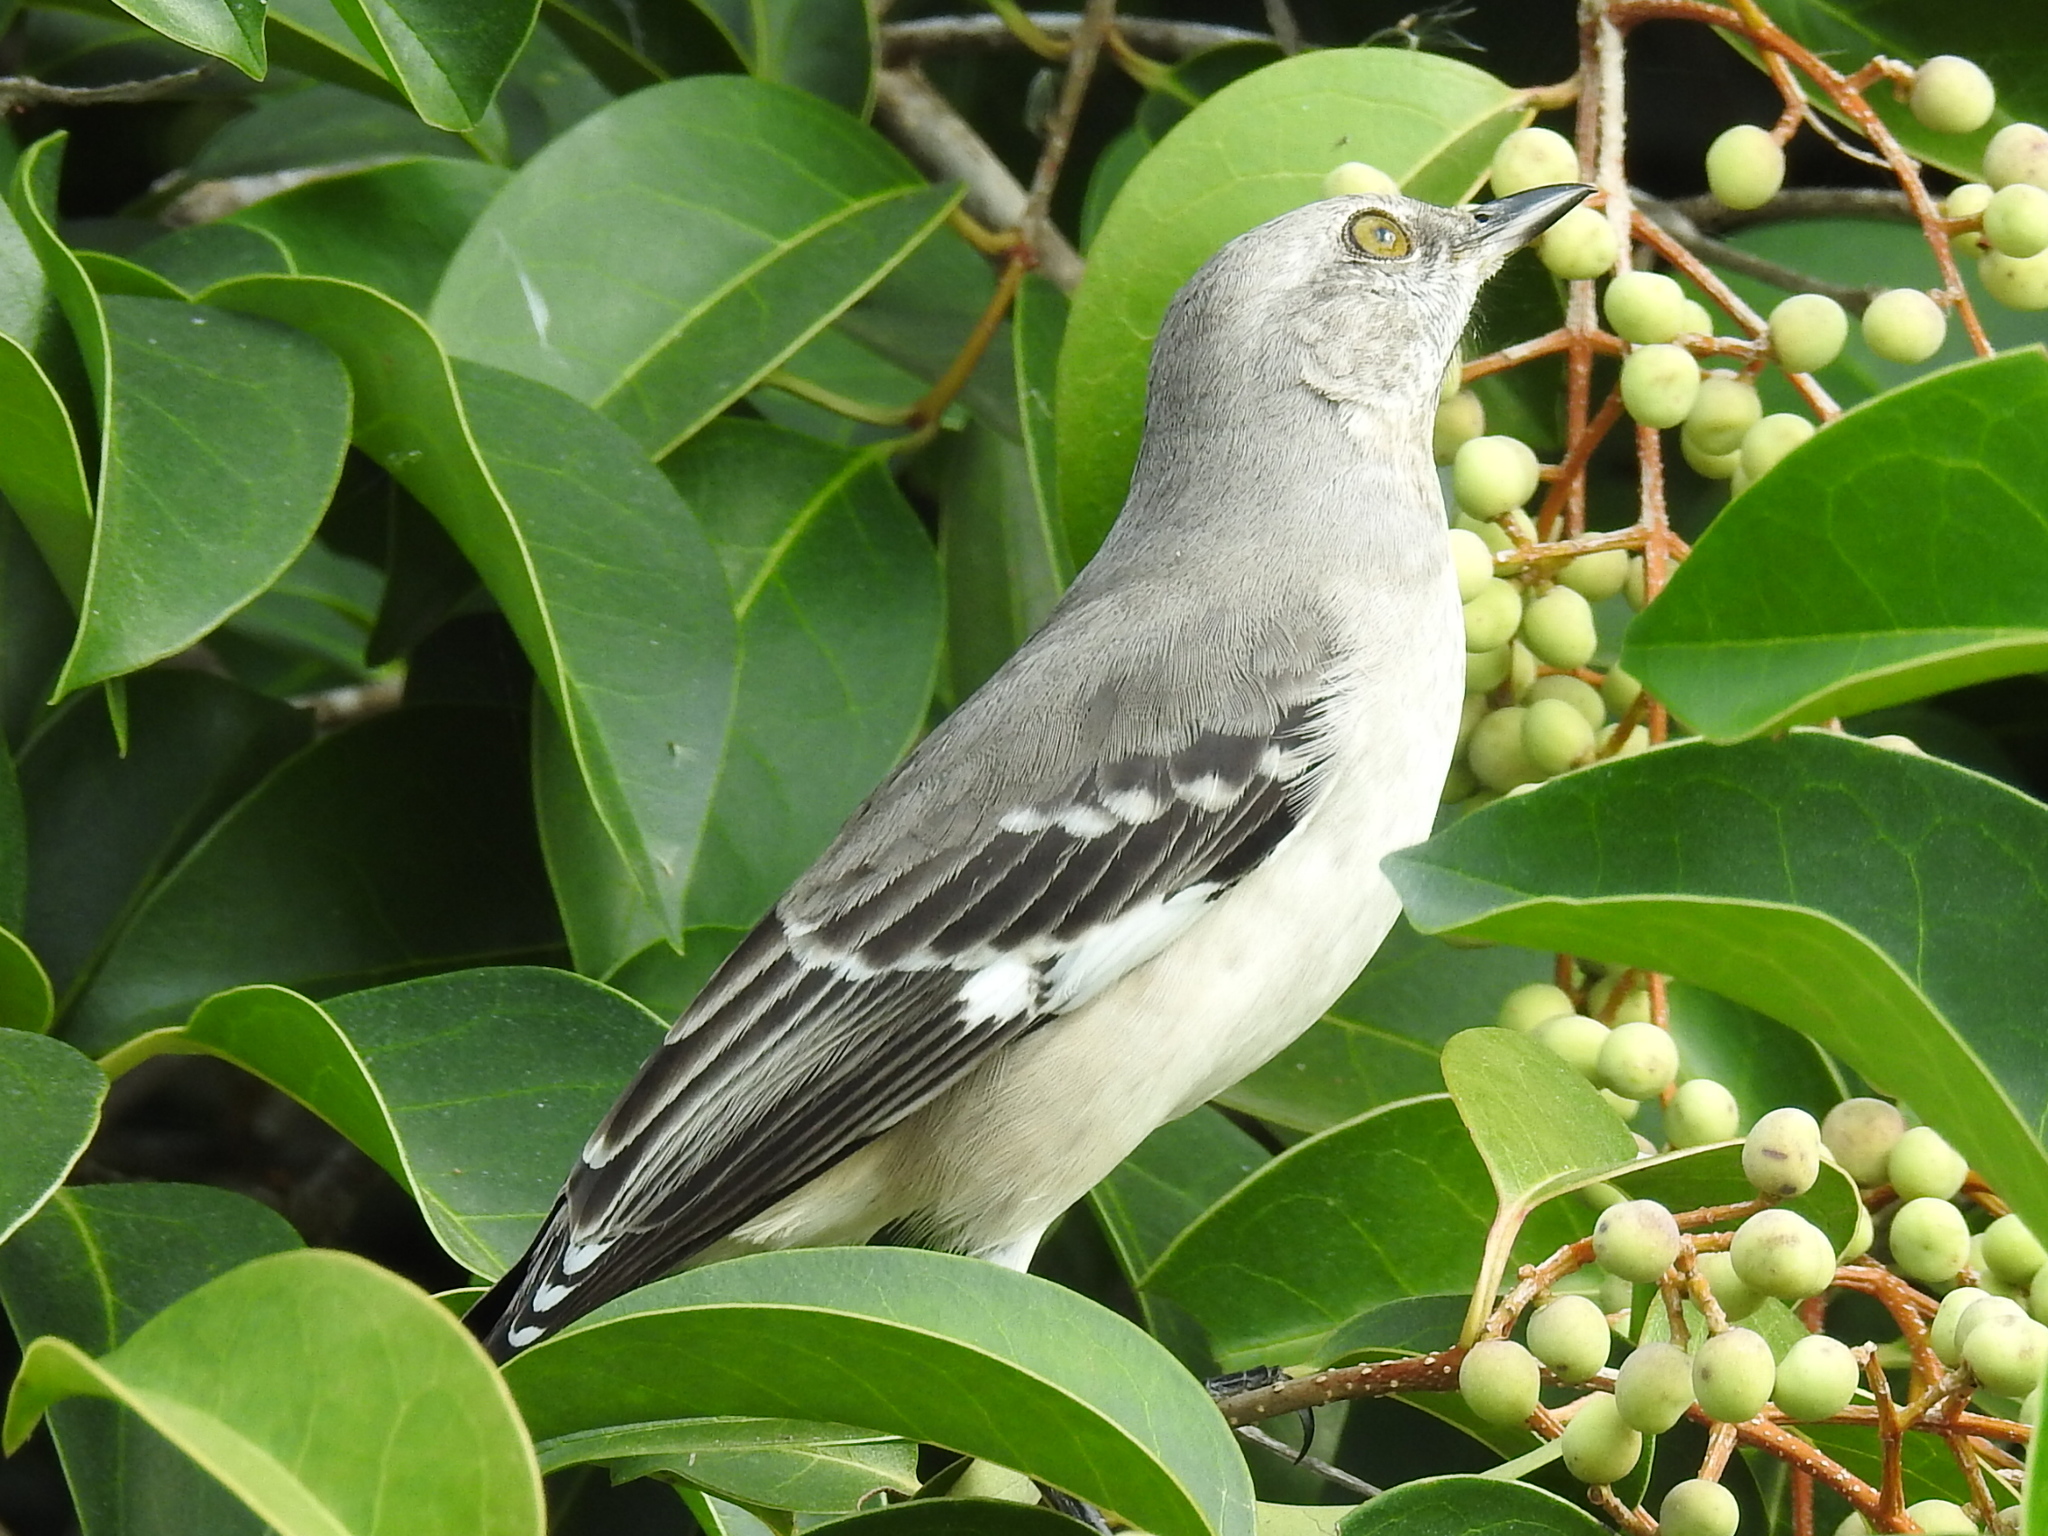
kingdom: Animalia
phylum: Chordata
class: Aves
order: Passeriformes
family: Mimidae
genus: Mimus
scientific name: Mimus polyglottos
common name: Northern mockingbird
